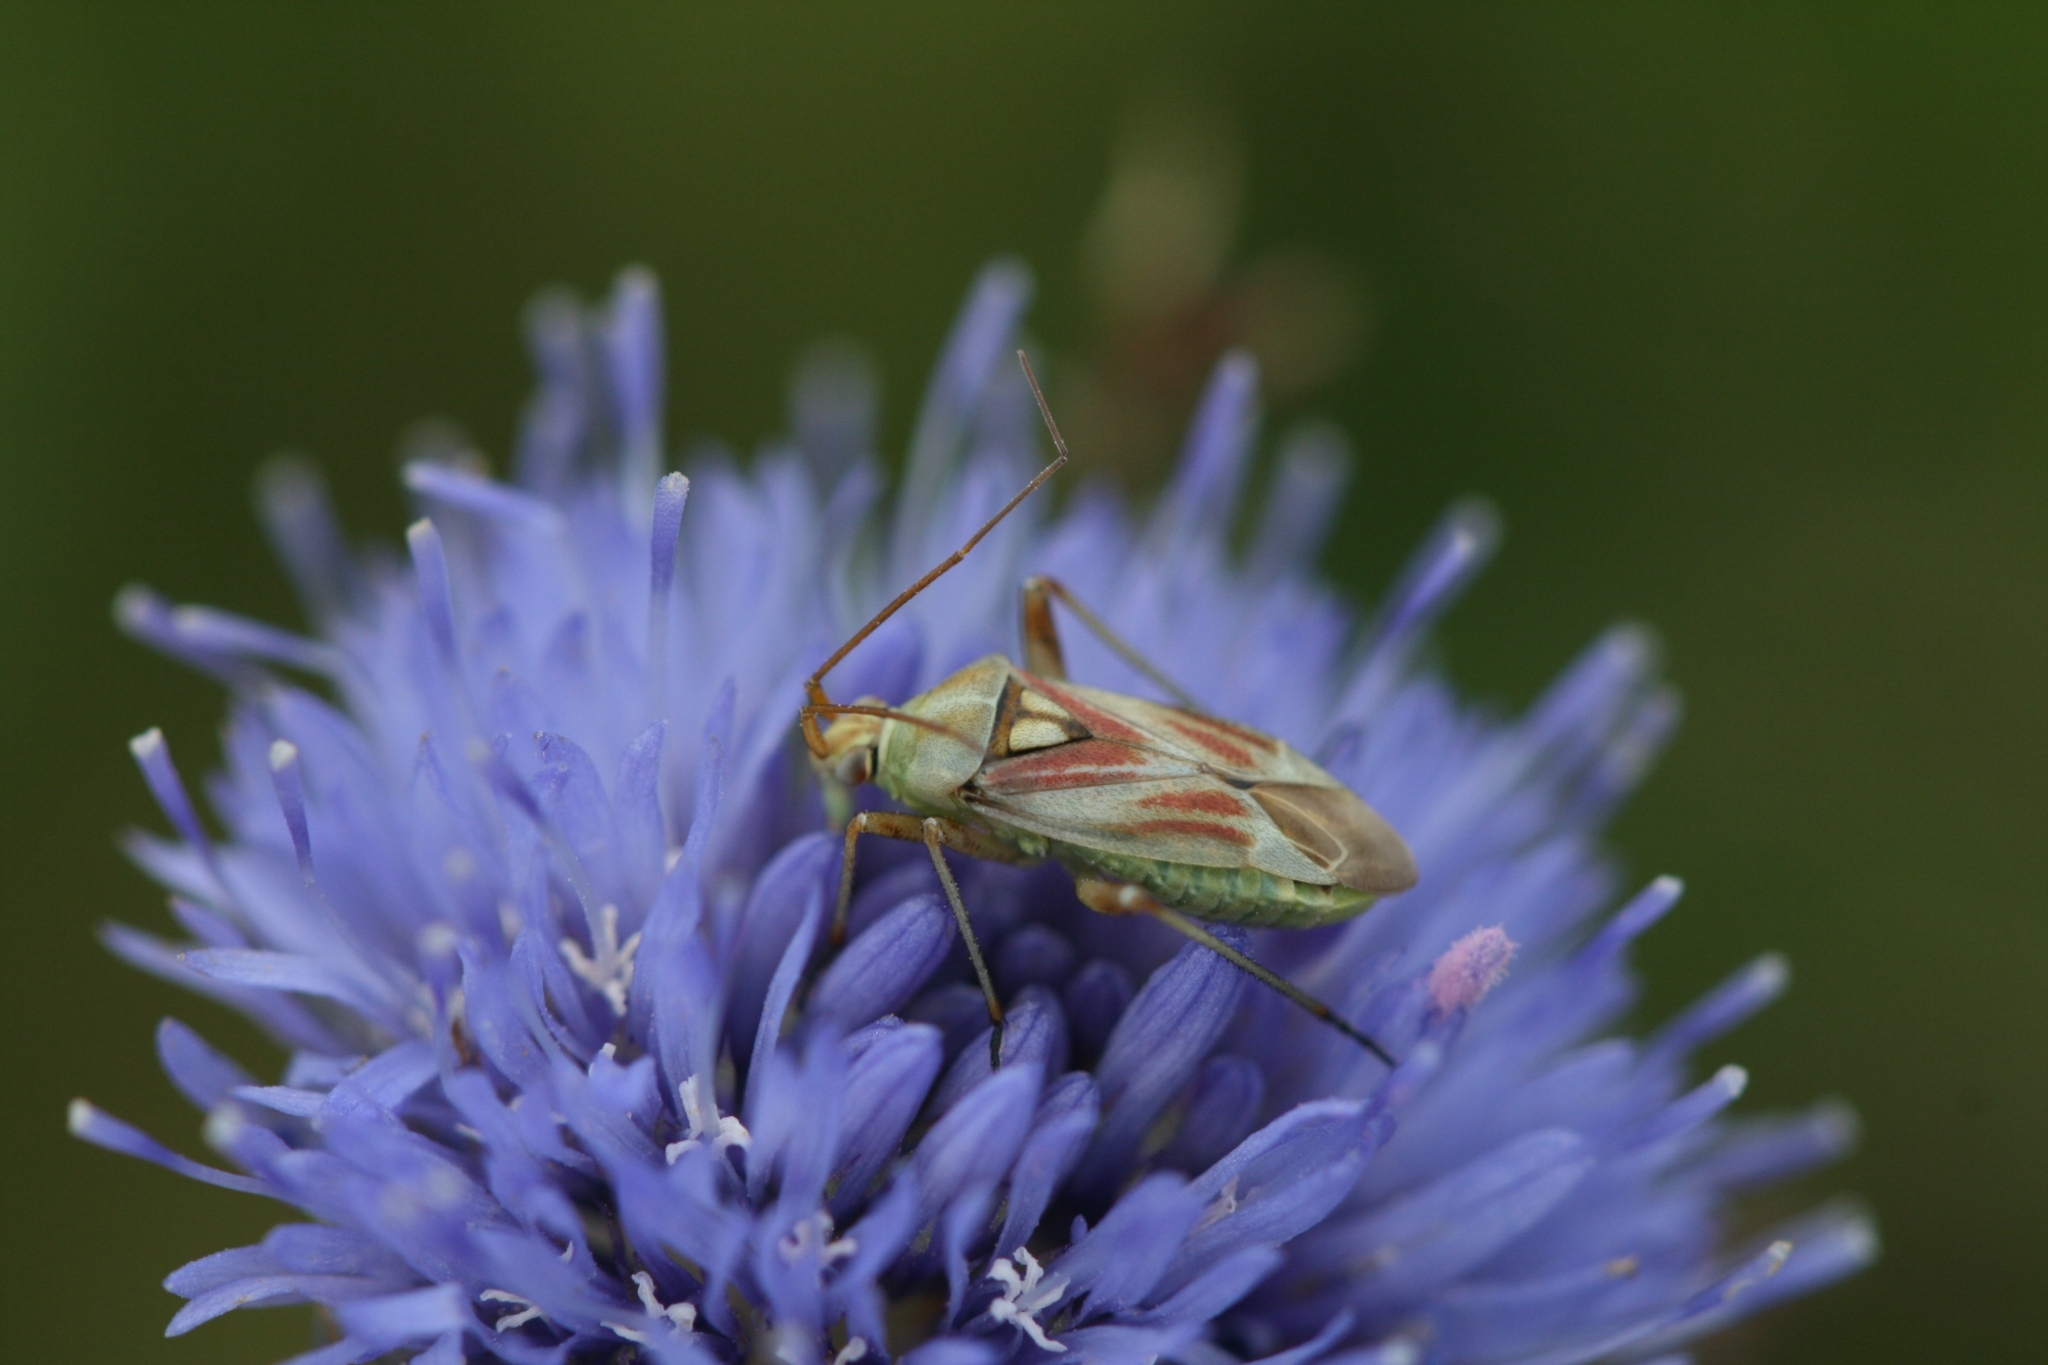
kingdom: Animalia
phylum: Arthropoda
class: Insecta
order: Hemiptera
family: Miridae
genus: Calocoris
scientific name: Calocoris roseomaculatus
